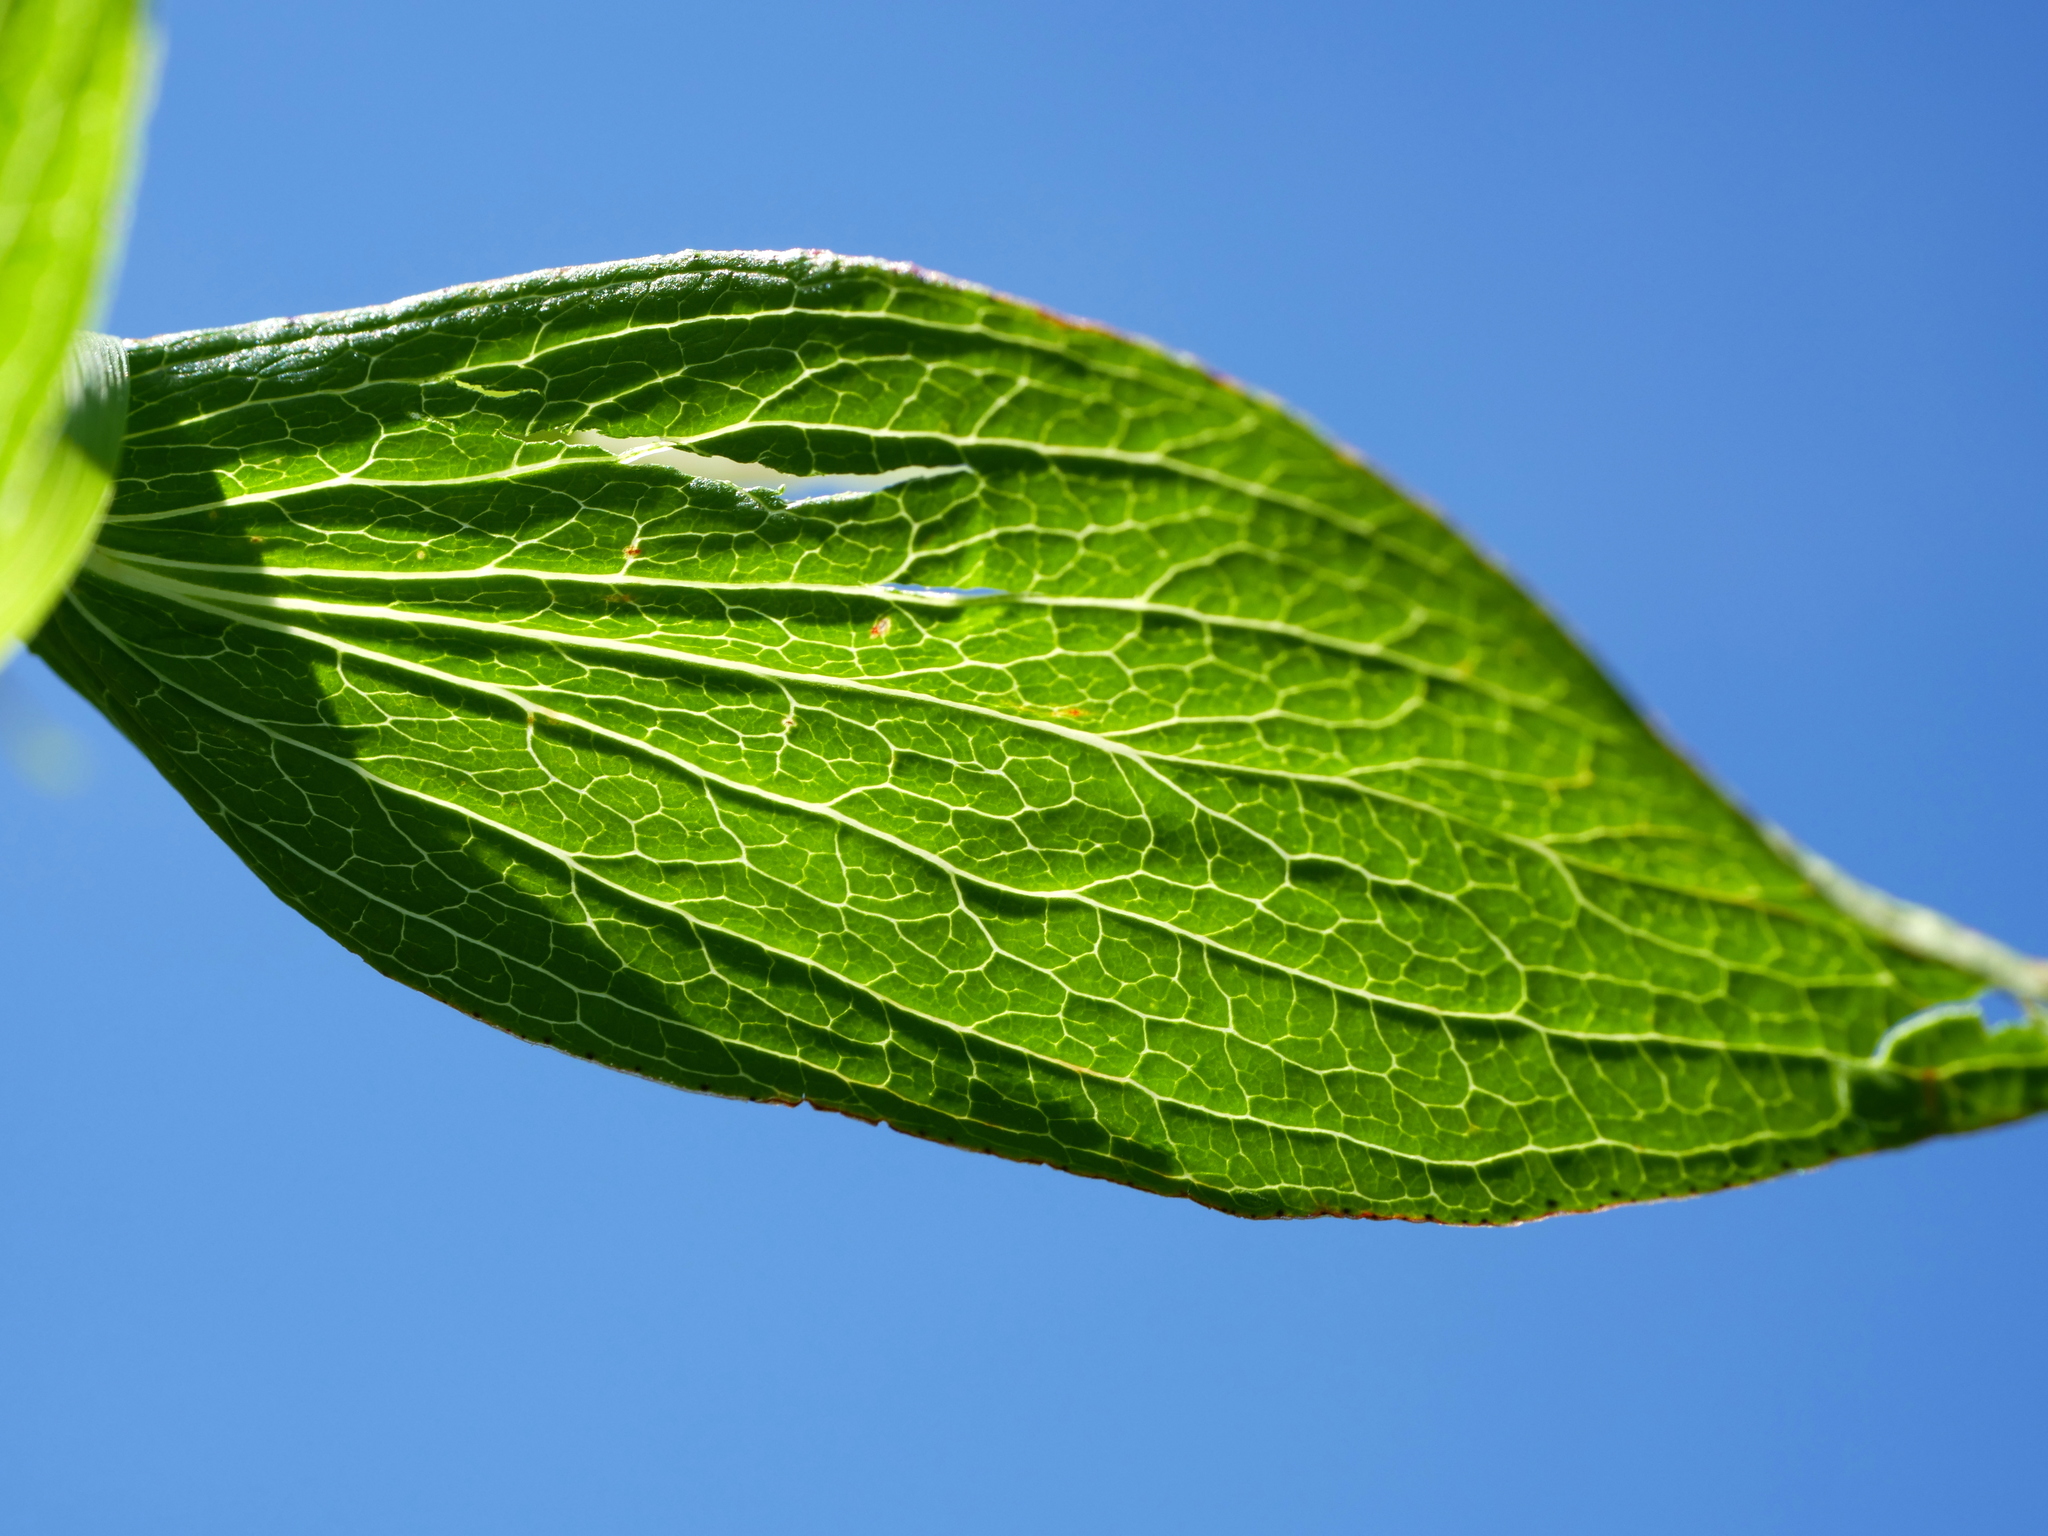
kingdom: Plantae
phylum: Tracheophyta
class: Magnoliopsida
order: Malpighiales
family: Hypericaceae
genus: Hypericum
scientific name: Hypericum maculatum
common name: Imperforate st. john's-wort
